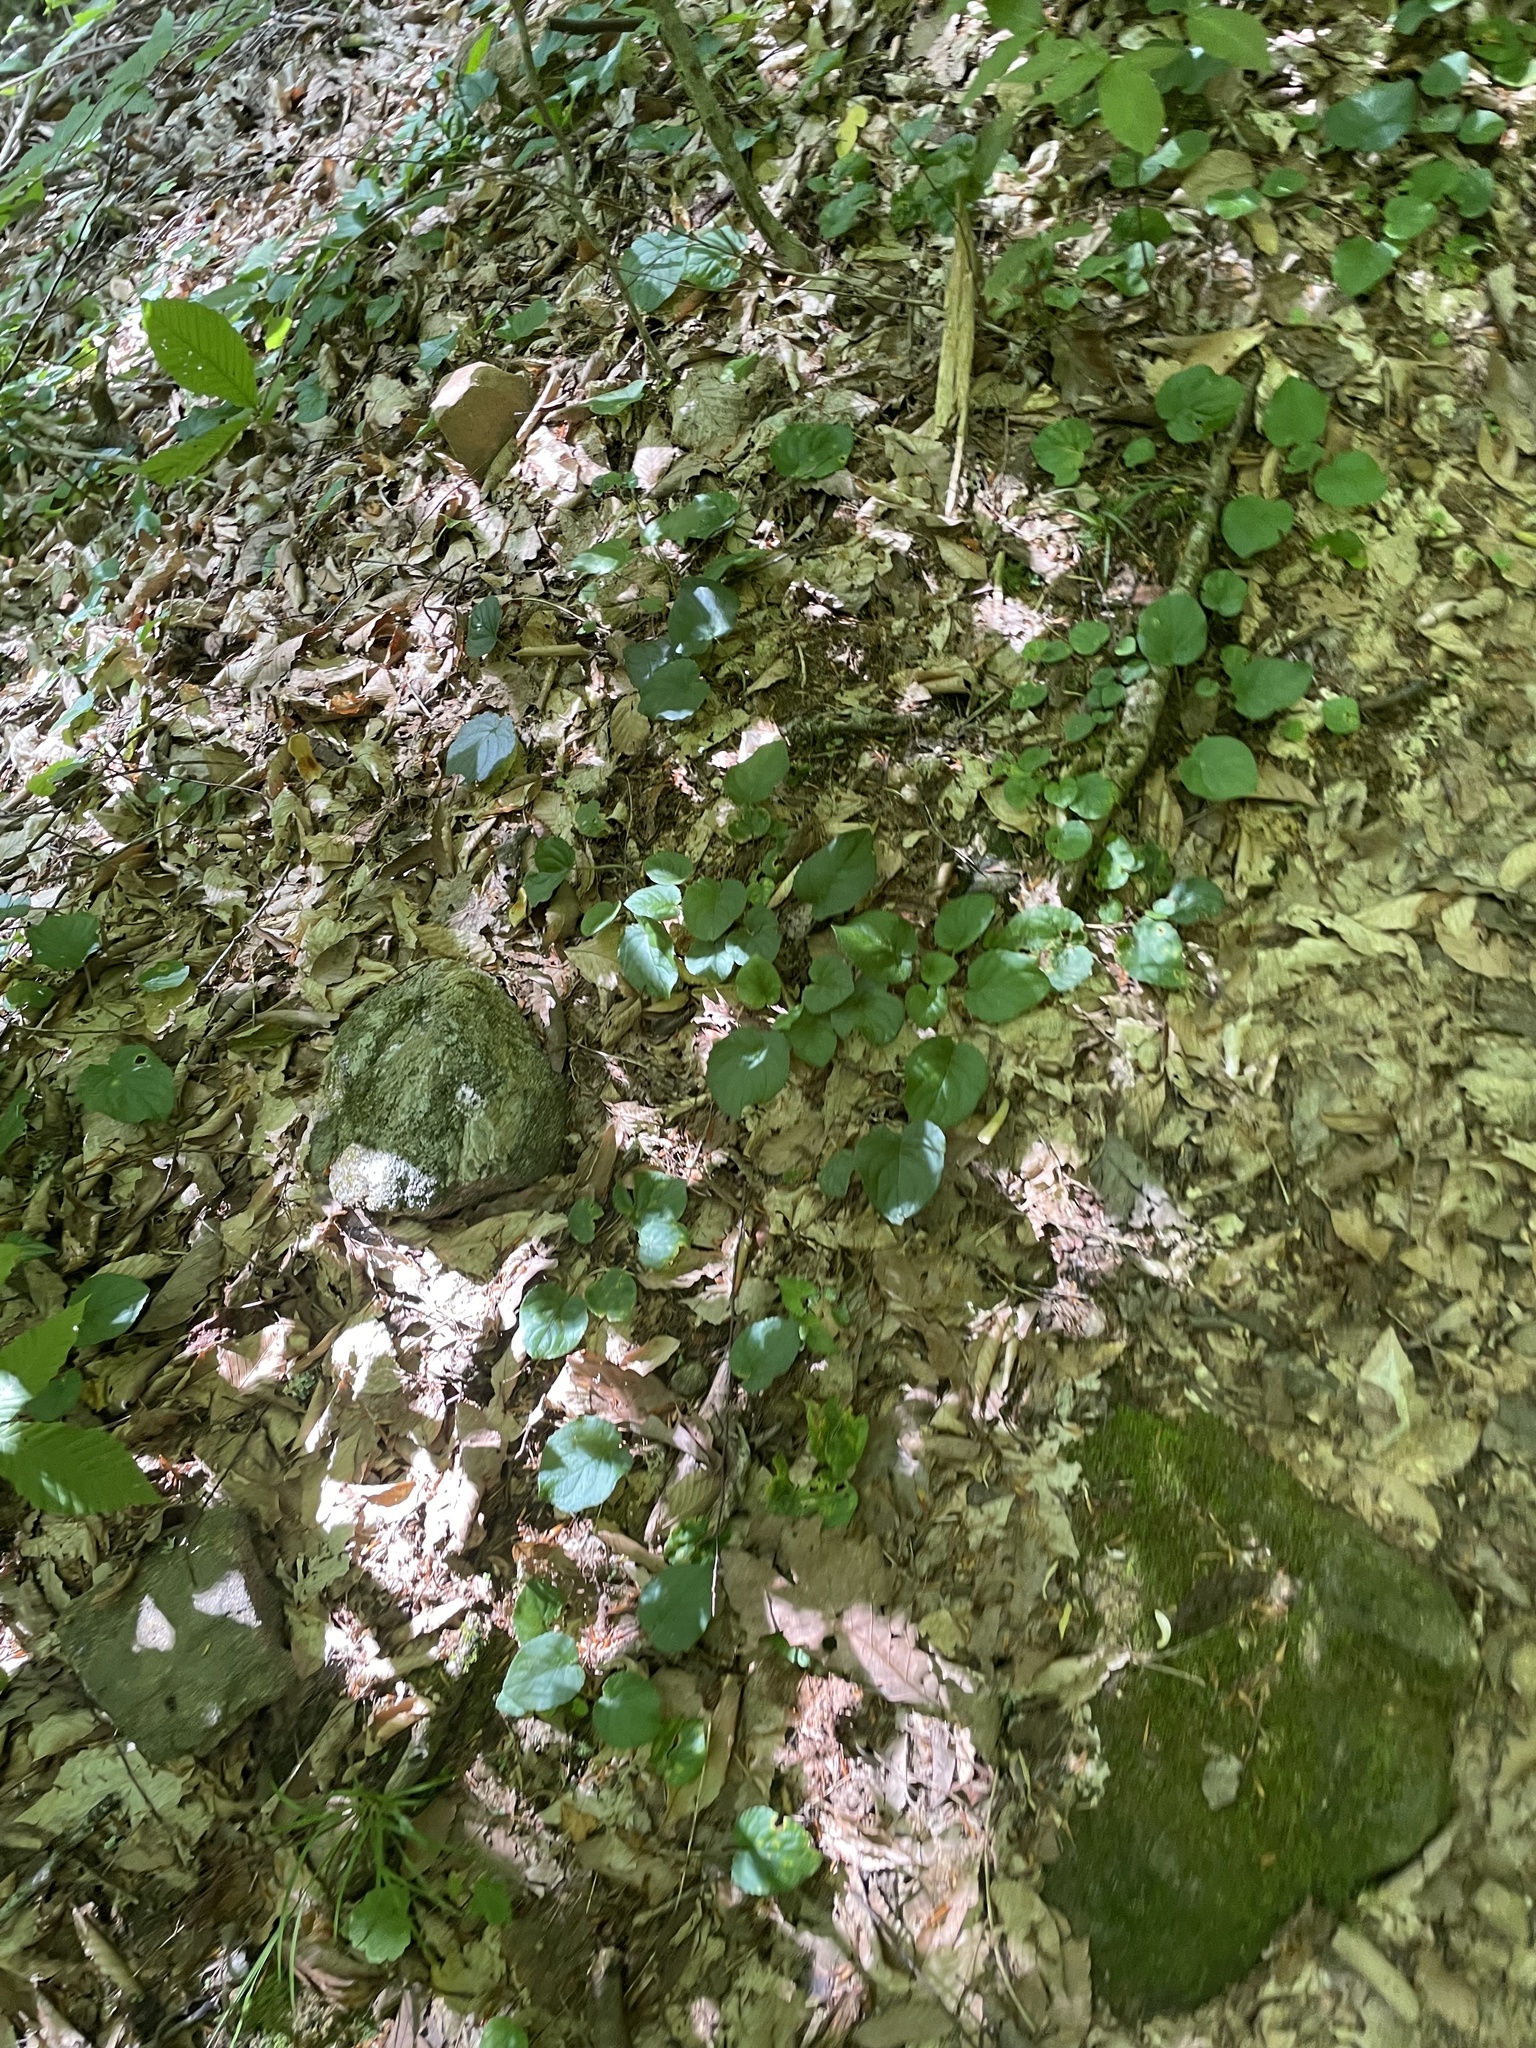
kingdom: Plantae
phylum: Tracheophyta
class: Magnoliopsida
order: Malpighiales
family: Violaceae
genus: Viola
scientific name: Viola rotundifolia
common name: Early yellow violet
